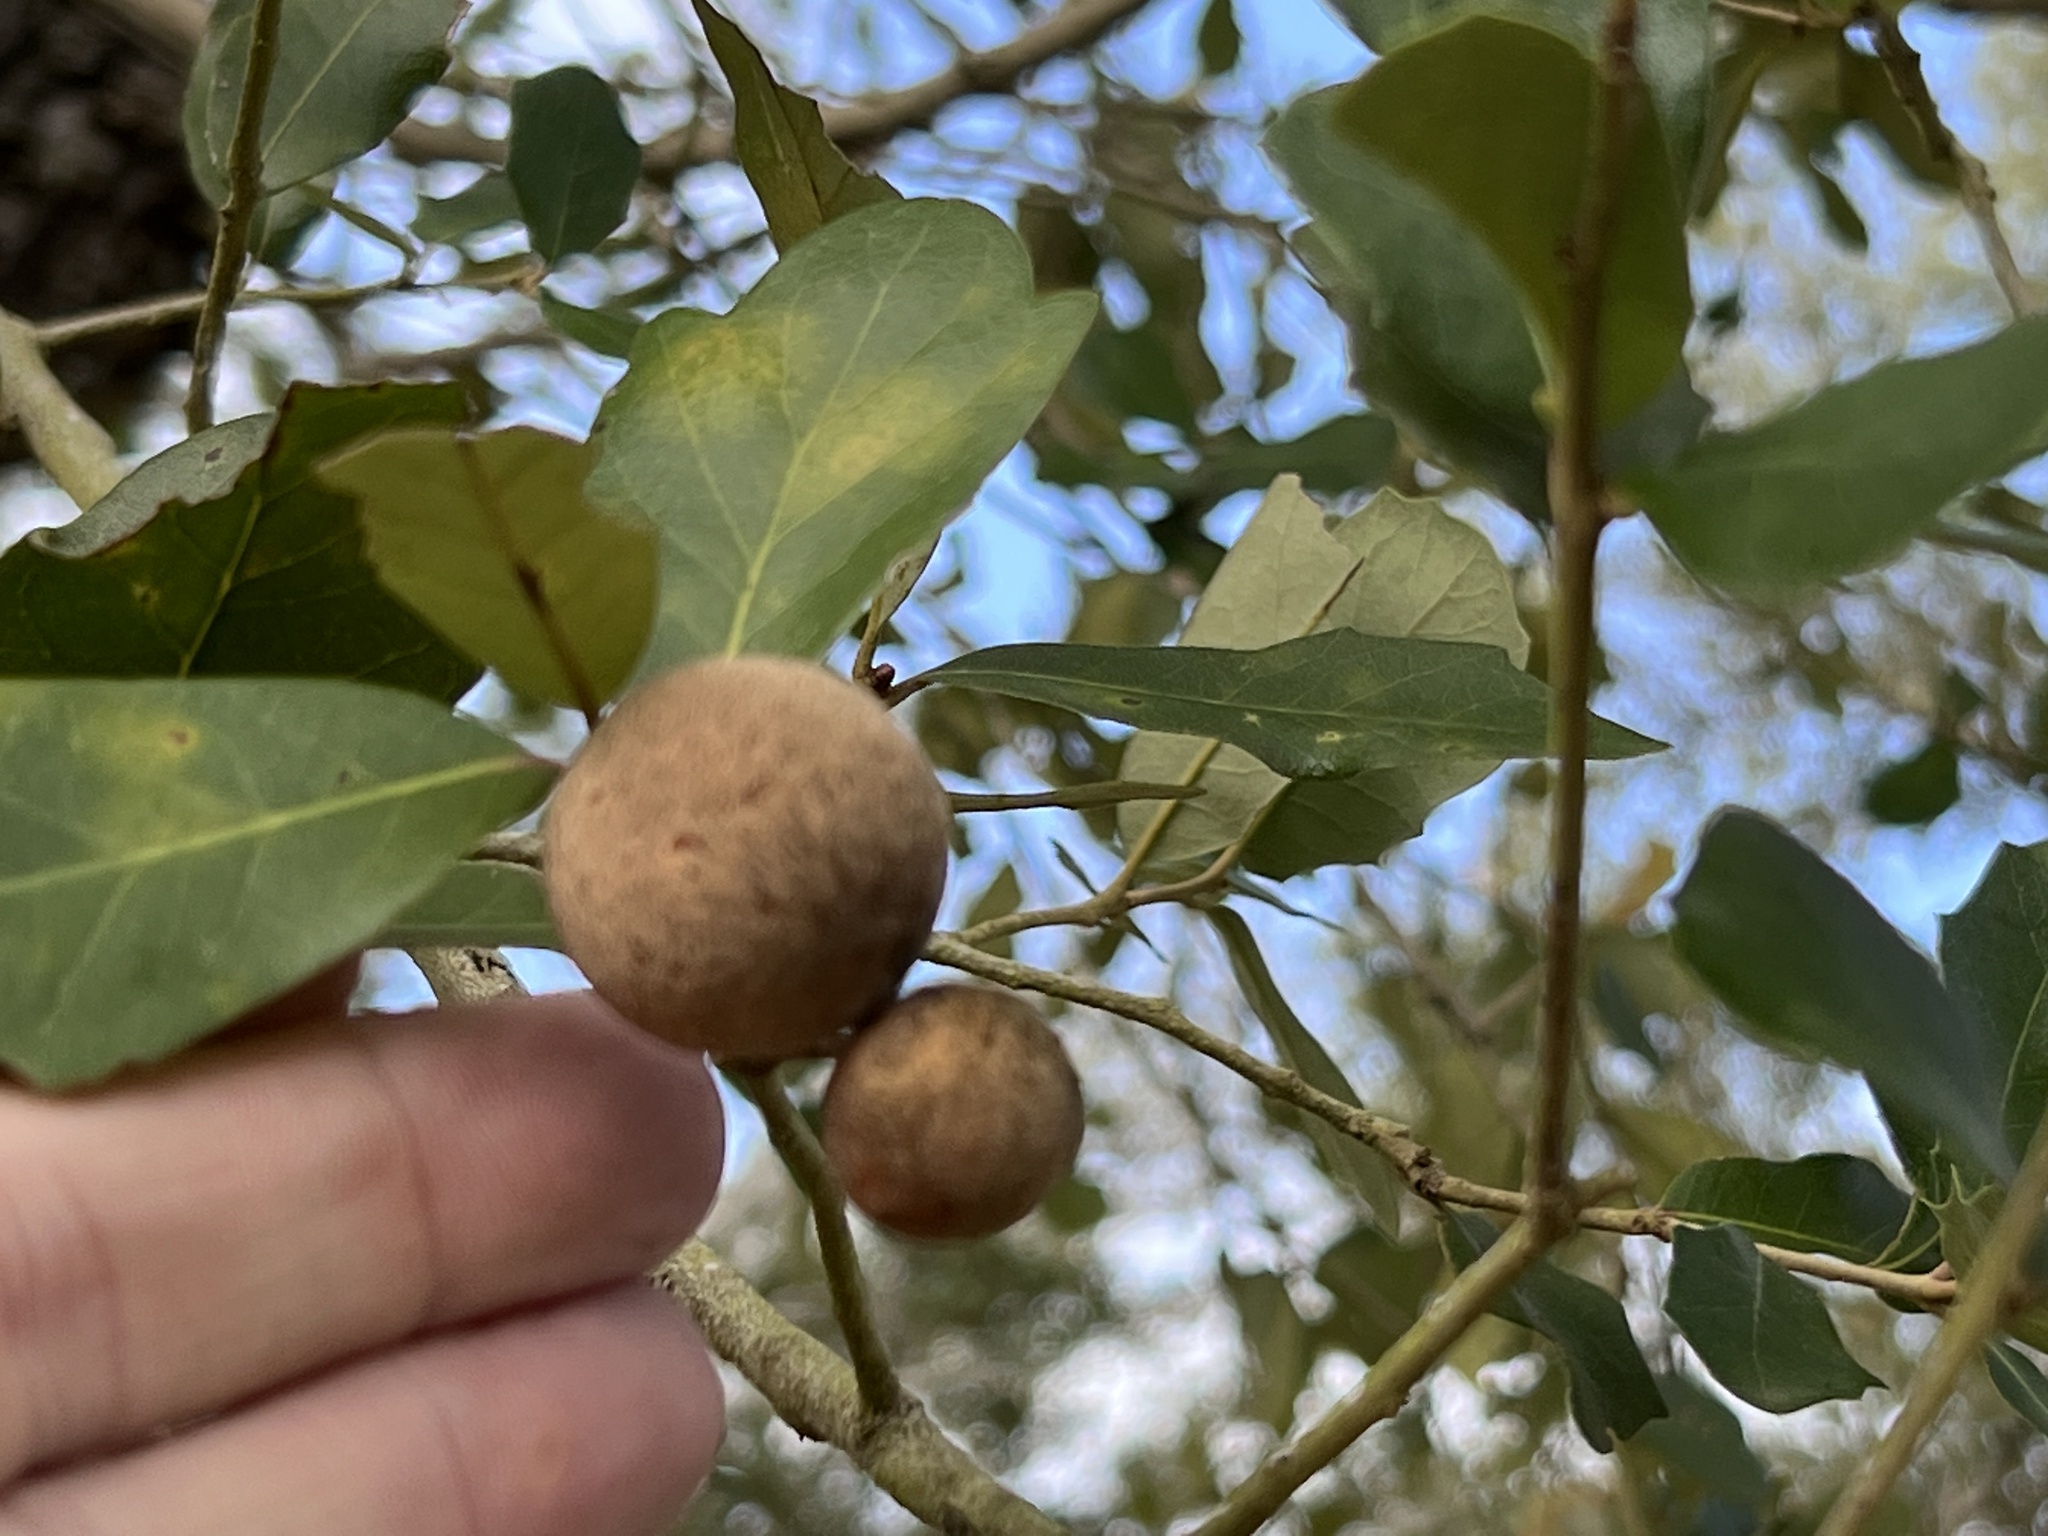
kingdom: Animalia
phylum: Arthropoda
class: Insecta
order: Hymenoptera
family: Cynipidae
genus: Disholcaspis
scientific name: Disholcaspis
